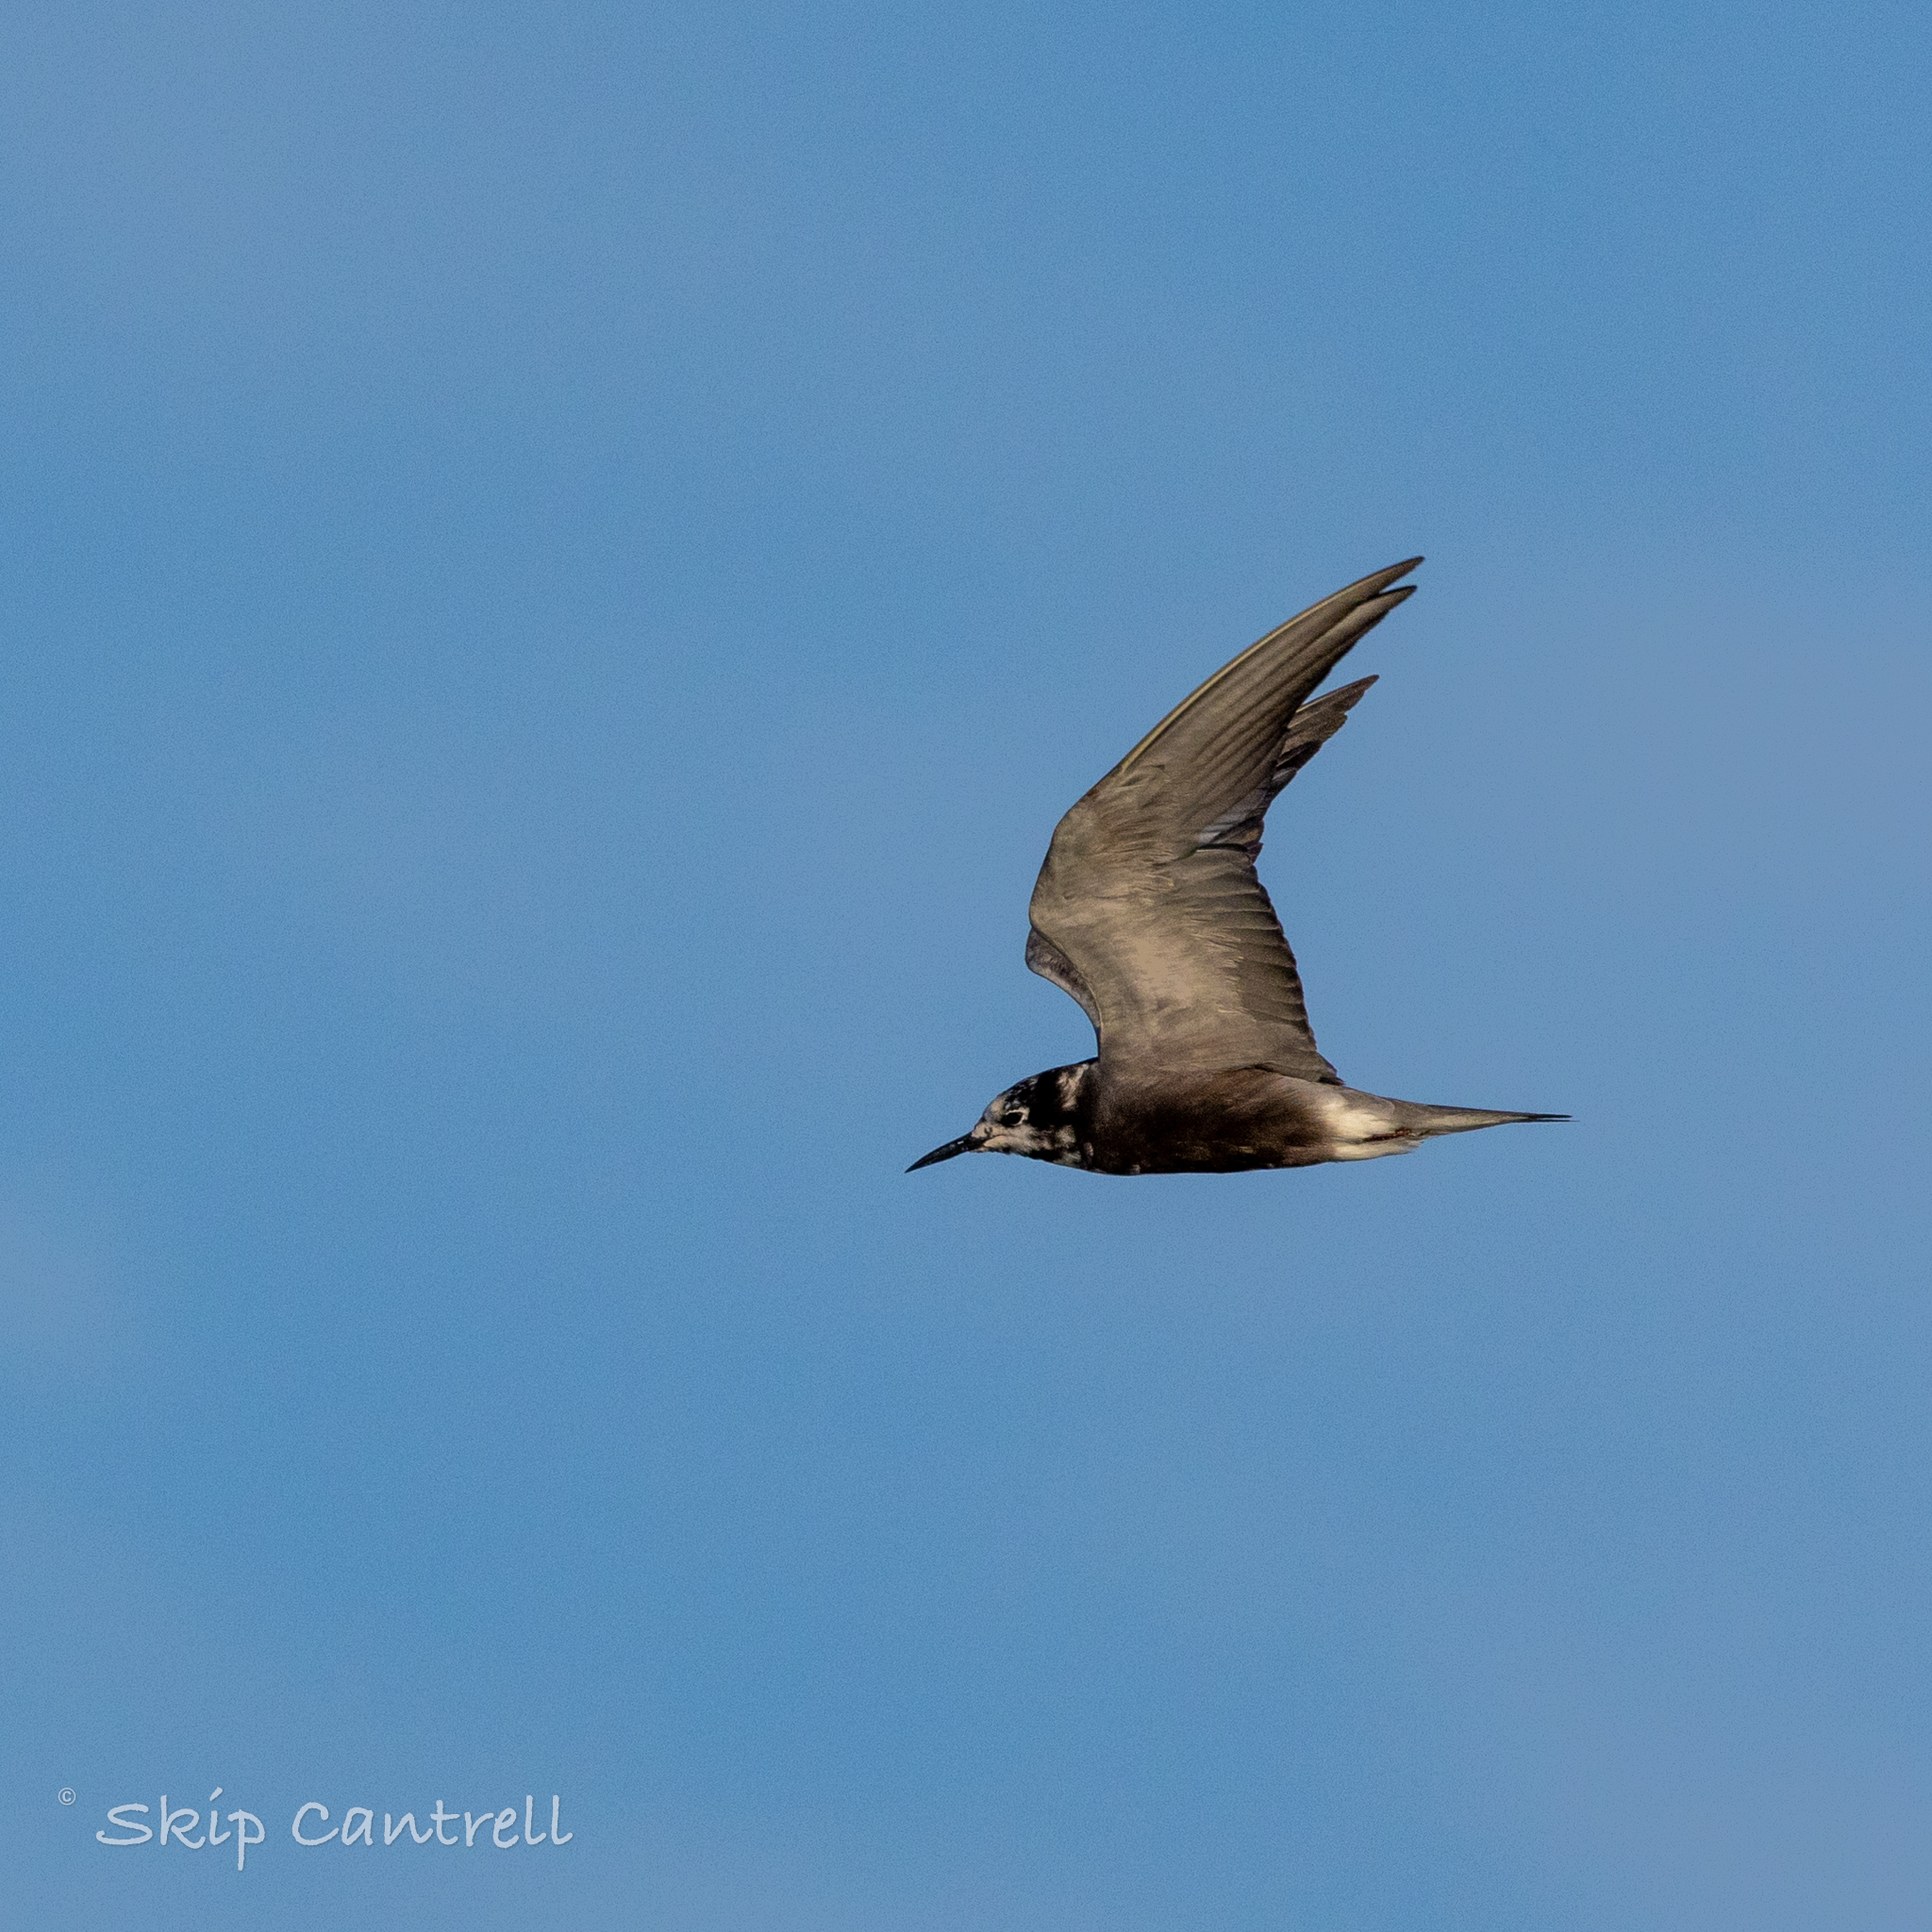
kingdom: Animalia
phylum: Chordata
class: Aves
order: Charadriiformes
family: Laridae
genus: Chlidonias
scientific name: Chlidonias niger
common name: Black tern
